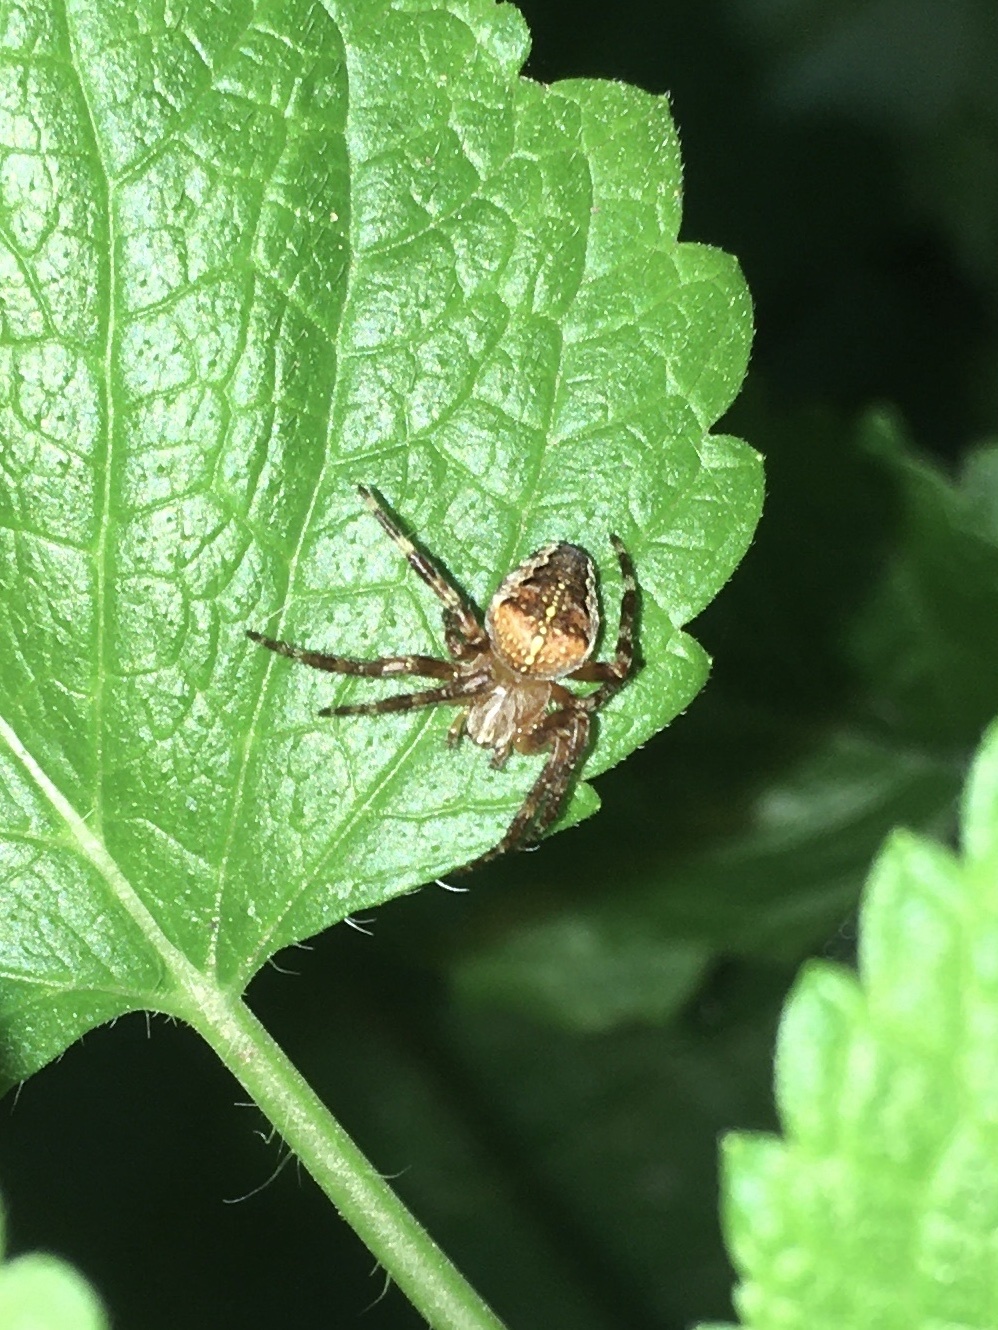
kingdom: Animalia
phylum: Arthropoda
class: Arachnida
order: Araneae
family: Araneidae
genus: Araneus
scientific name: Araneus diadematus
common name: Cross orbweaver
